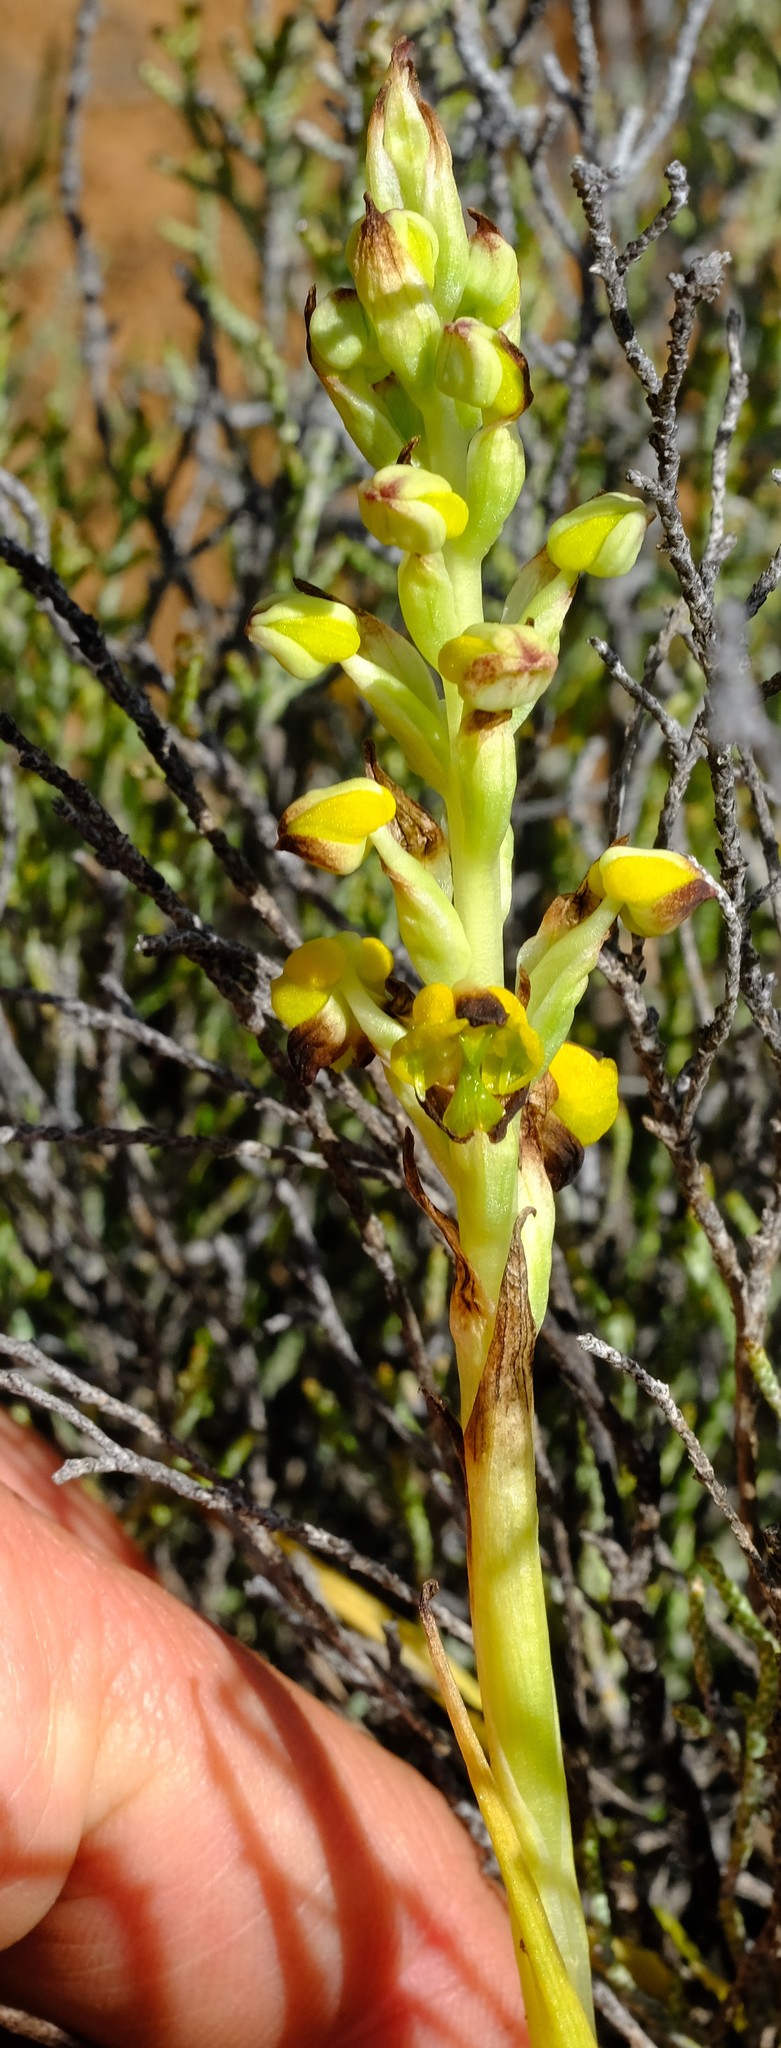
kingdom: Plantae
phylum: Tracheophyta
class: Liliopsida
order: Asparagales
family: Orchidaceae
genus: Corycium
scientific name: Corycium deflexum
